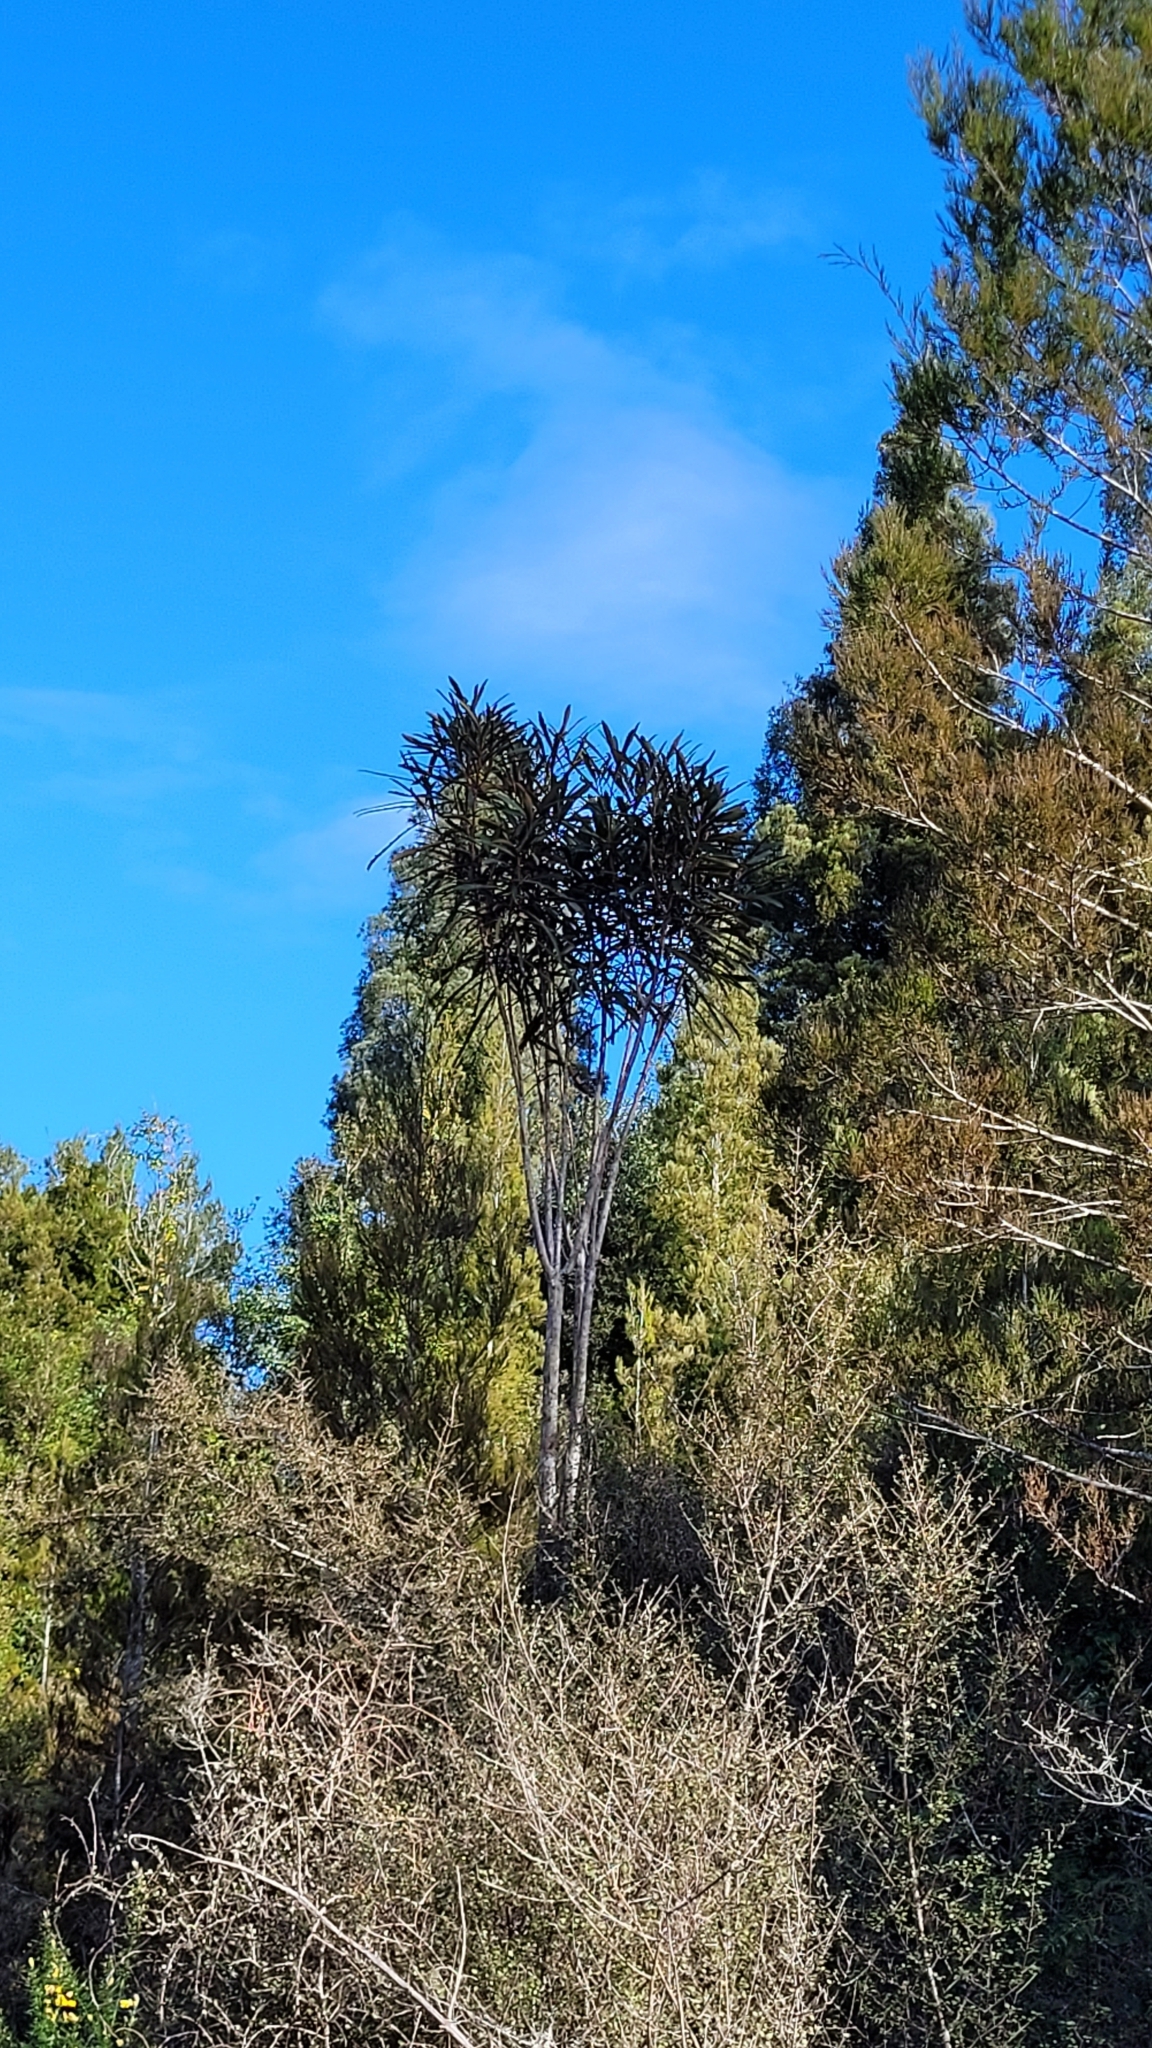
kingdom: Plantae
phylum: Tracheophyta
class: Magnoliopsida
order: Apiales
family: Araliaceae
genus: Pseudopanax
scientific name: Pseudopanax crassifolius
